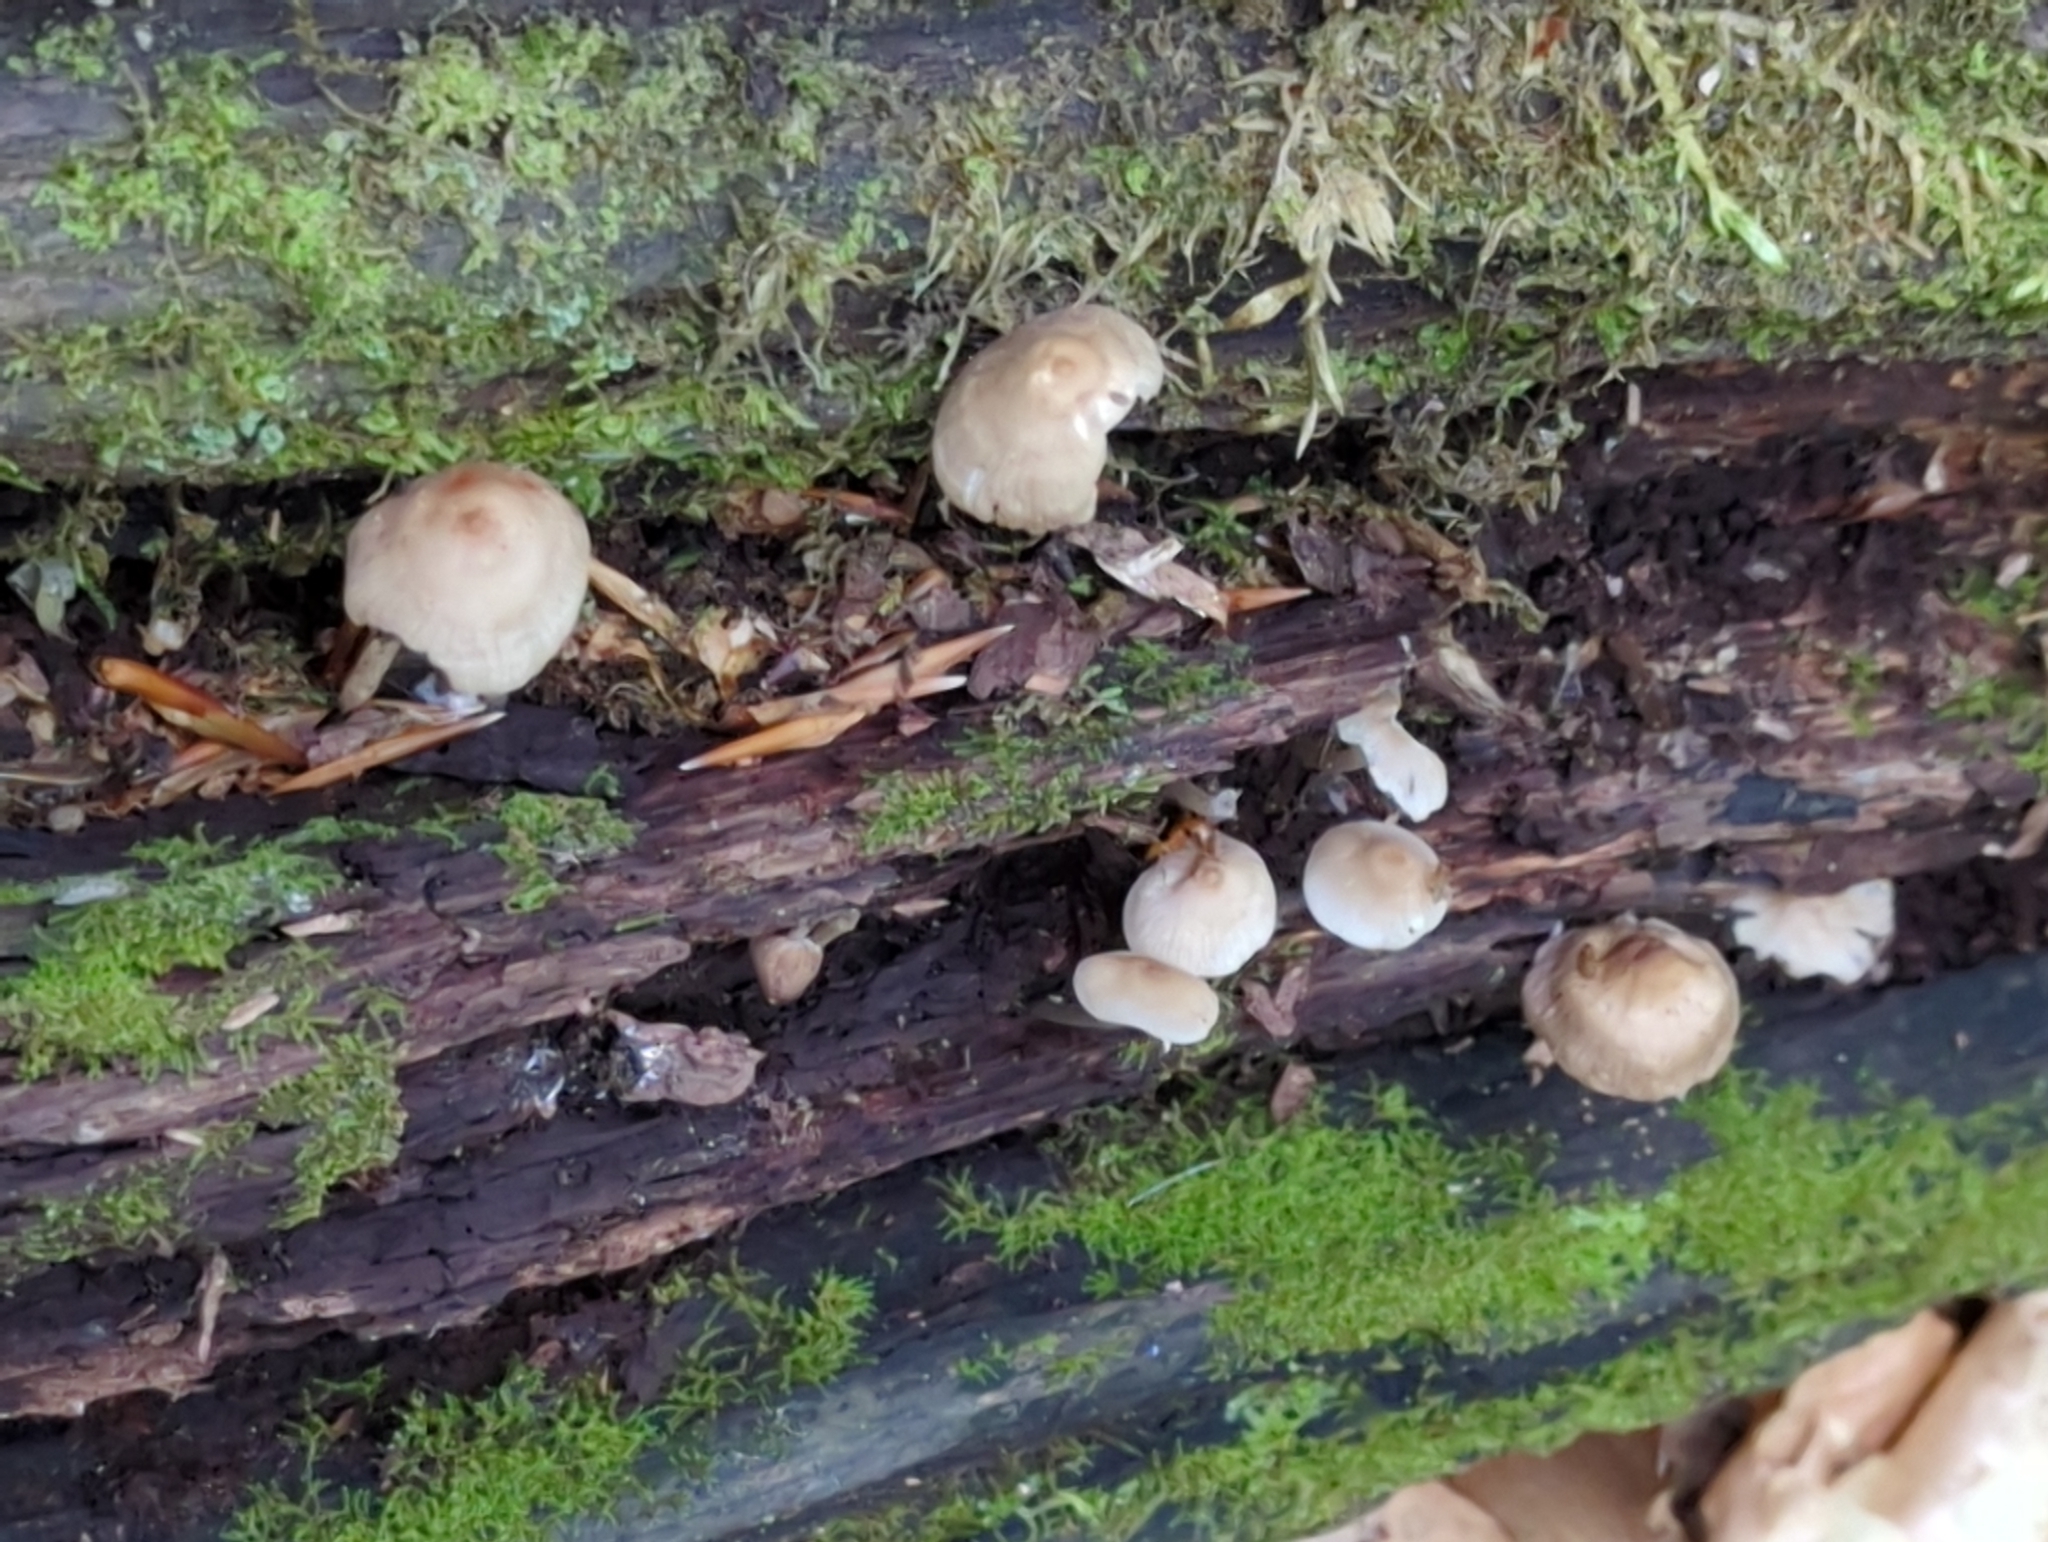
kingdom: Fungi
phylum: Basidiomycota
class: Agaricomycetes
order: Agaricales
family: Mycenaceae
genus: Mycena
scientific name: Mycena galericulata
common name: Bonnet mycena
